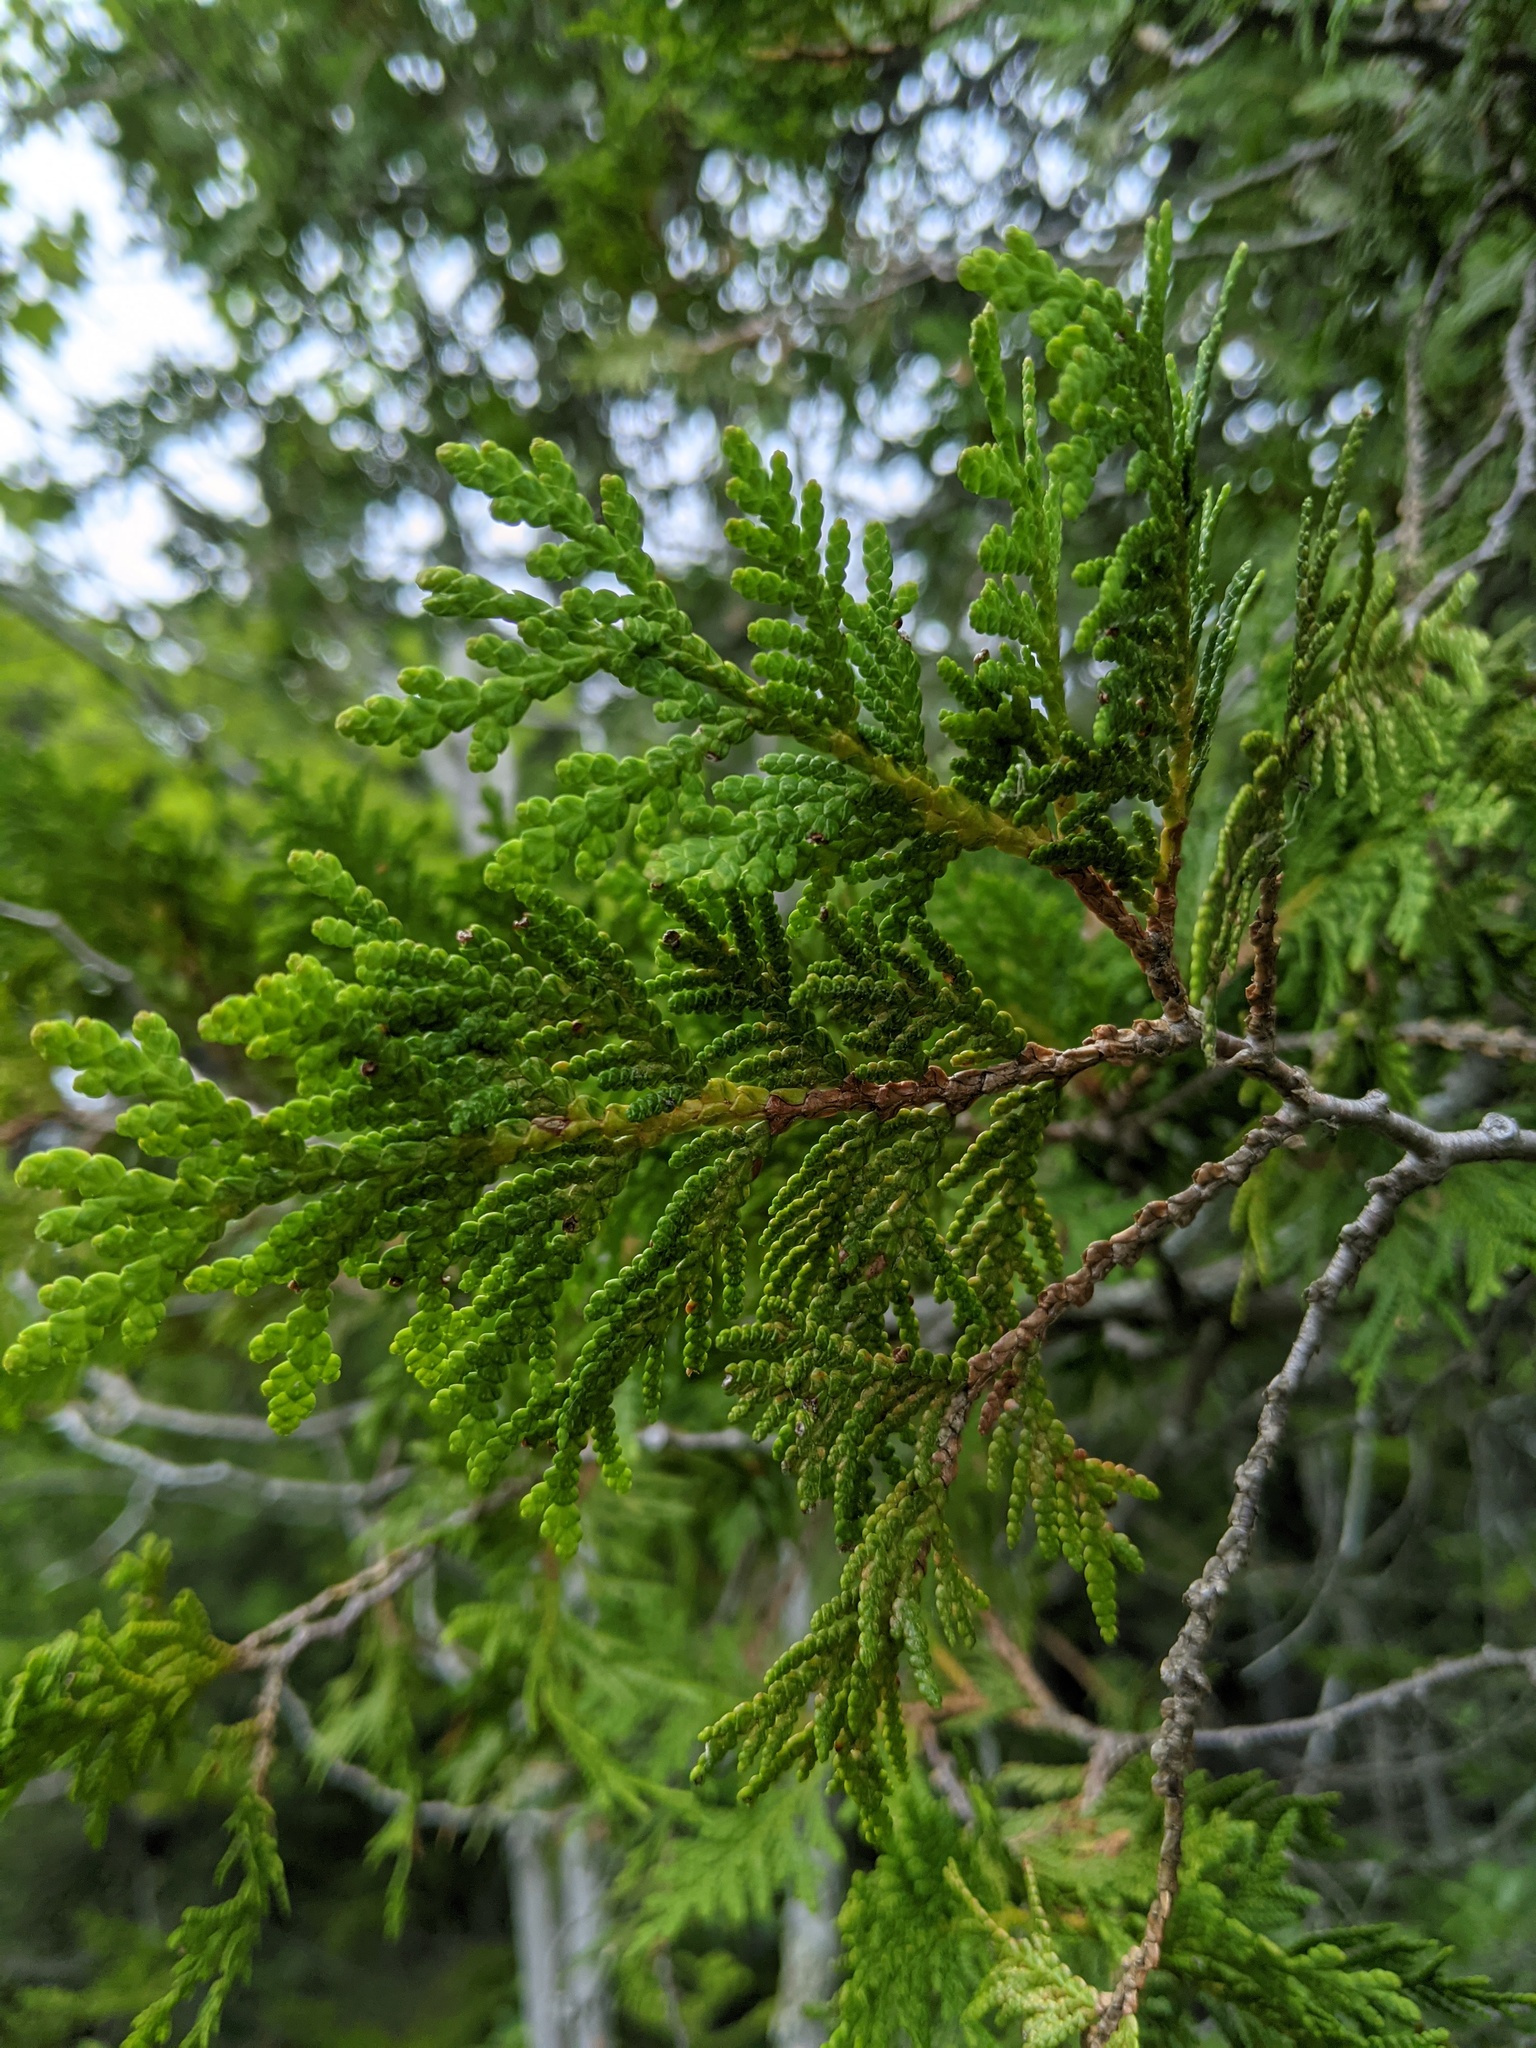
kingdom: Plantae
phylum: Tracheophyta
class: Pinopsida
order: Pinales
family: Cupressaceae
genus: Thuja
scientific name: Thuja occidentalis
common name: Northern white-cedar
